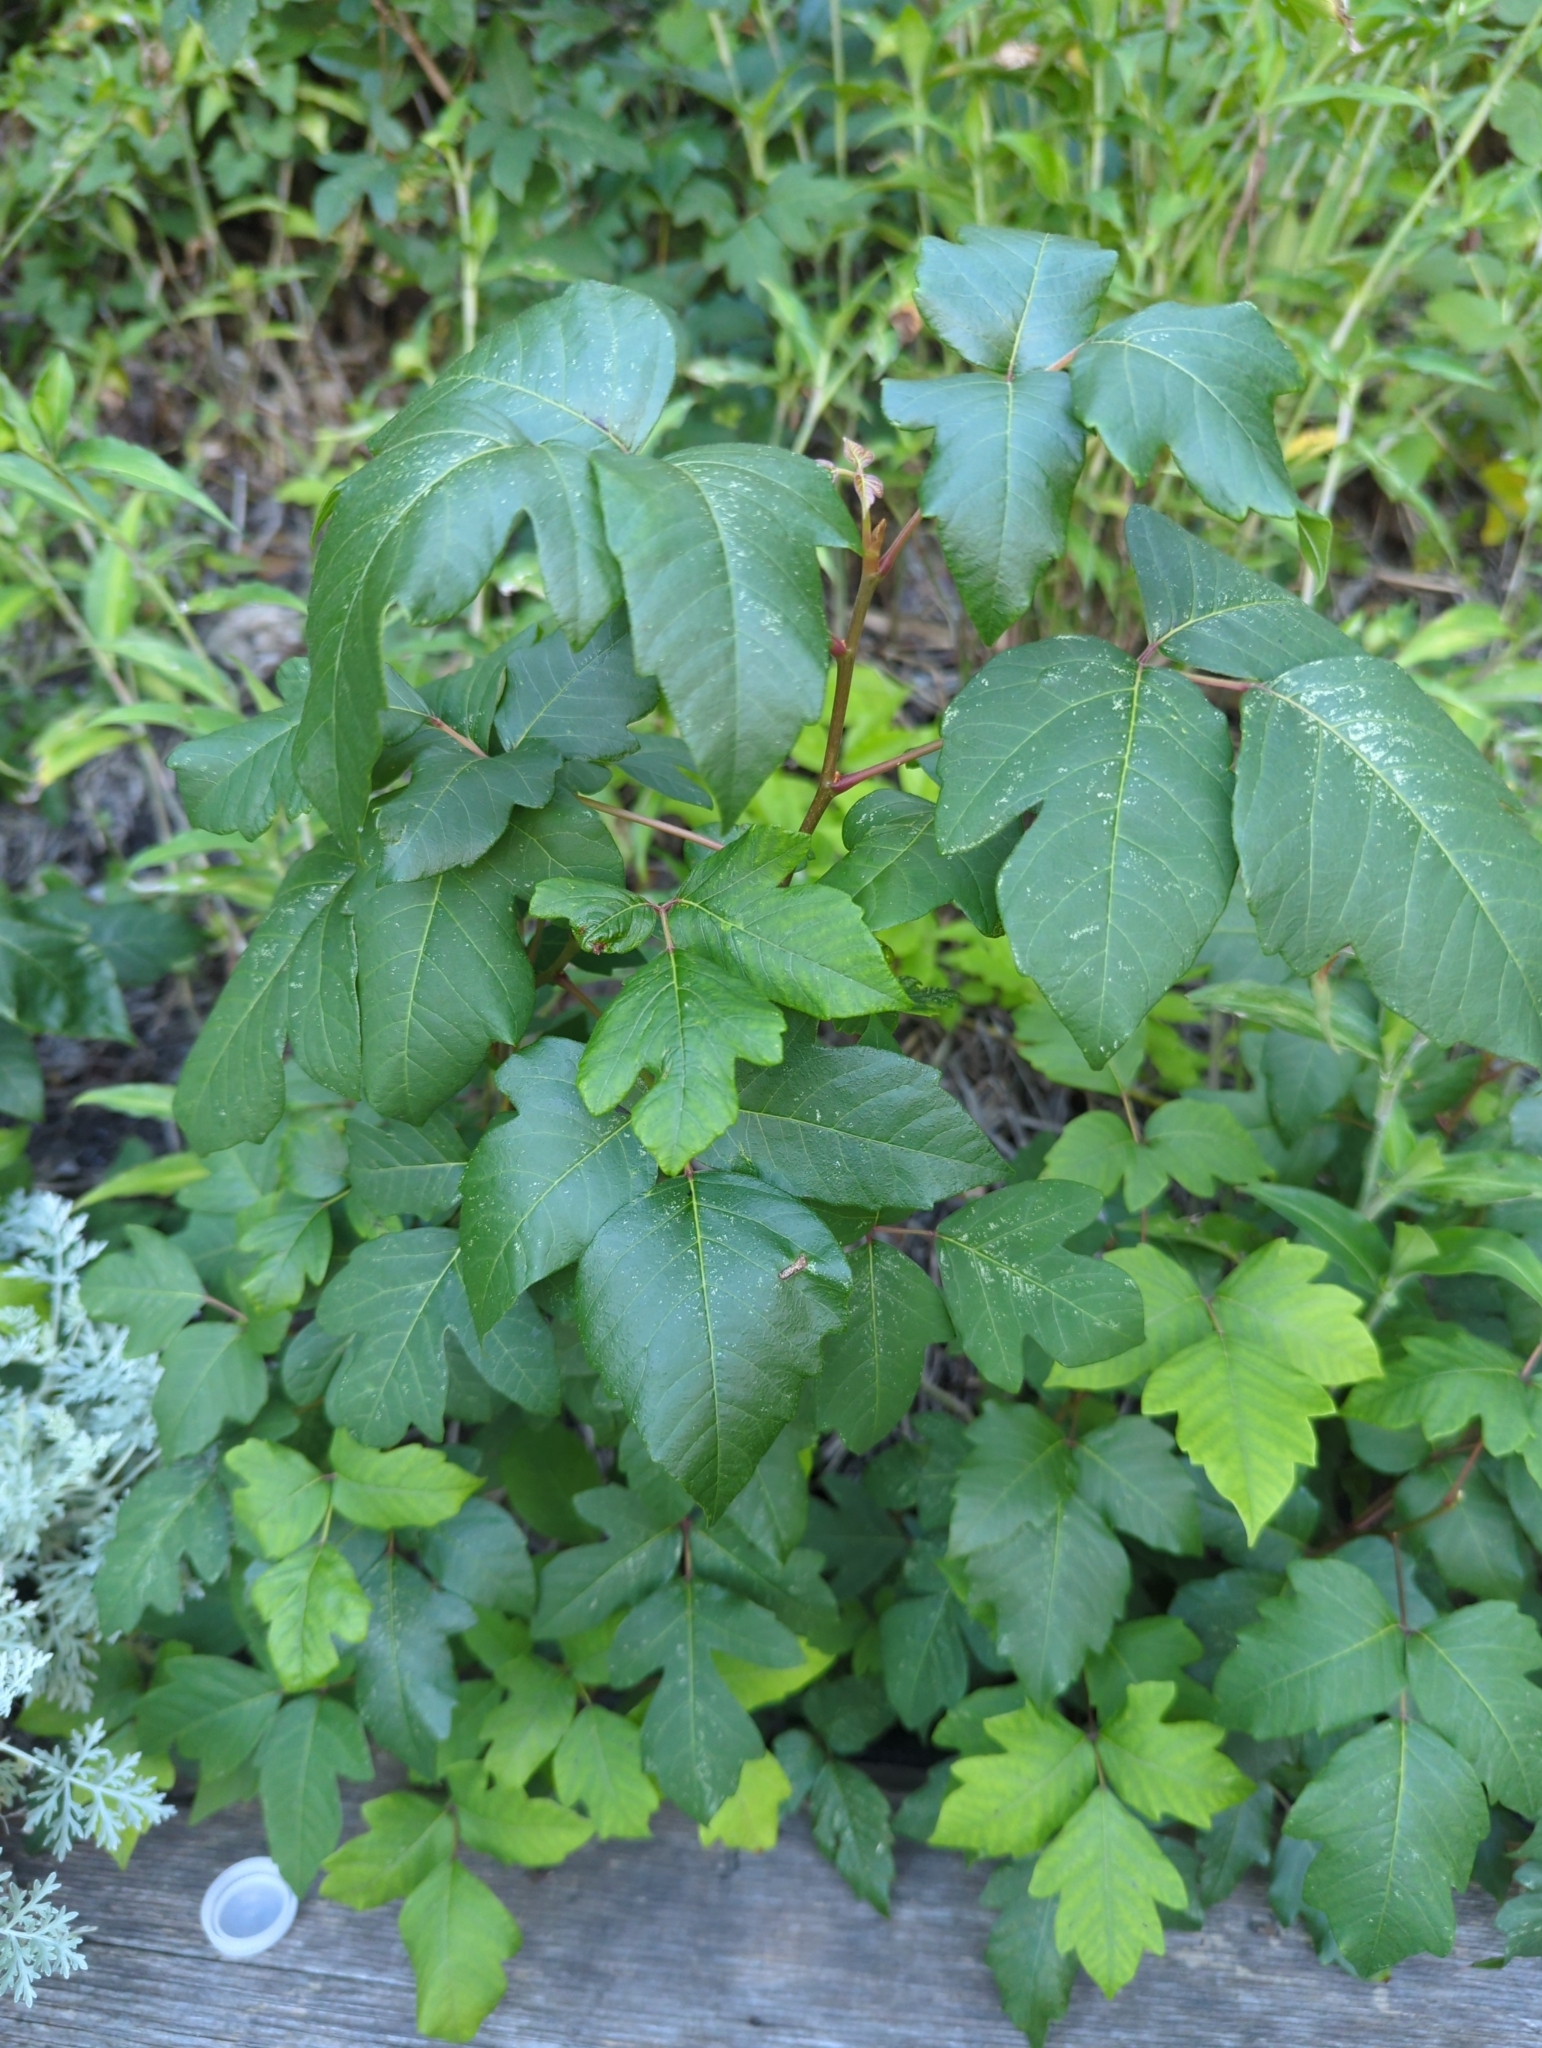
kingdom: Plantae
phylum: Tracheophyta
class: Magnoliopsida
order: Sapindales
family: Anacardiaceae
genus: Toxicodendron
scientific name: Toxicodendron radicans
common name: Poison ivy
